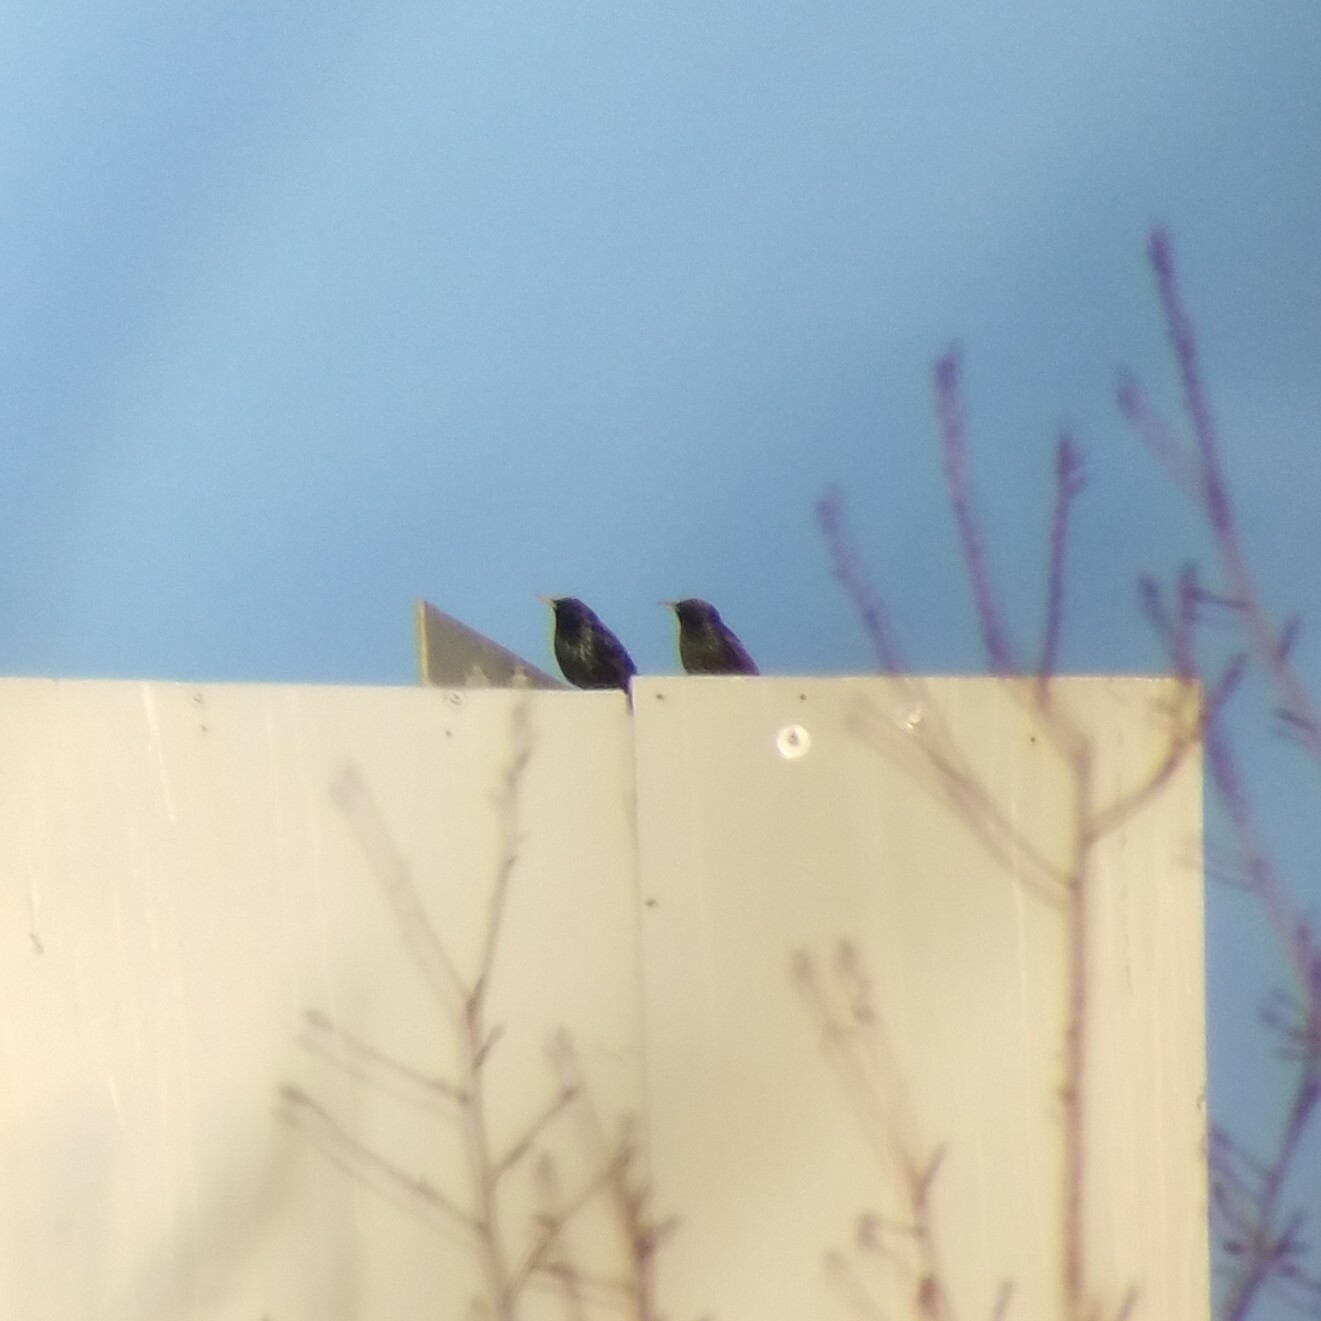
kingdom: Animalia
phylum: Chordata
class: Aves
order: Passeriformes
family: Sturnidae
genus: Sturnus
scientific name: Sturnus vulgaris
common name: Common starling
